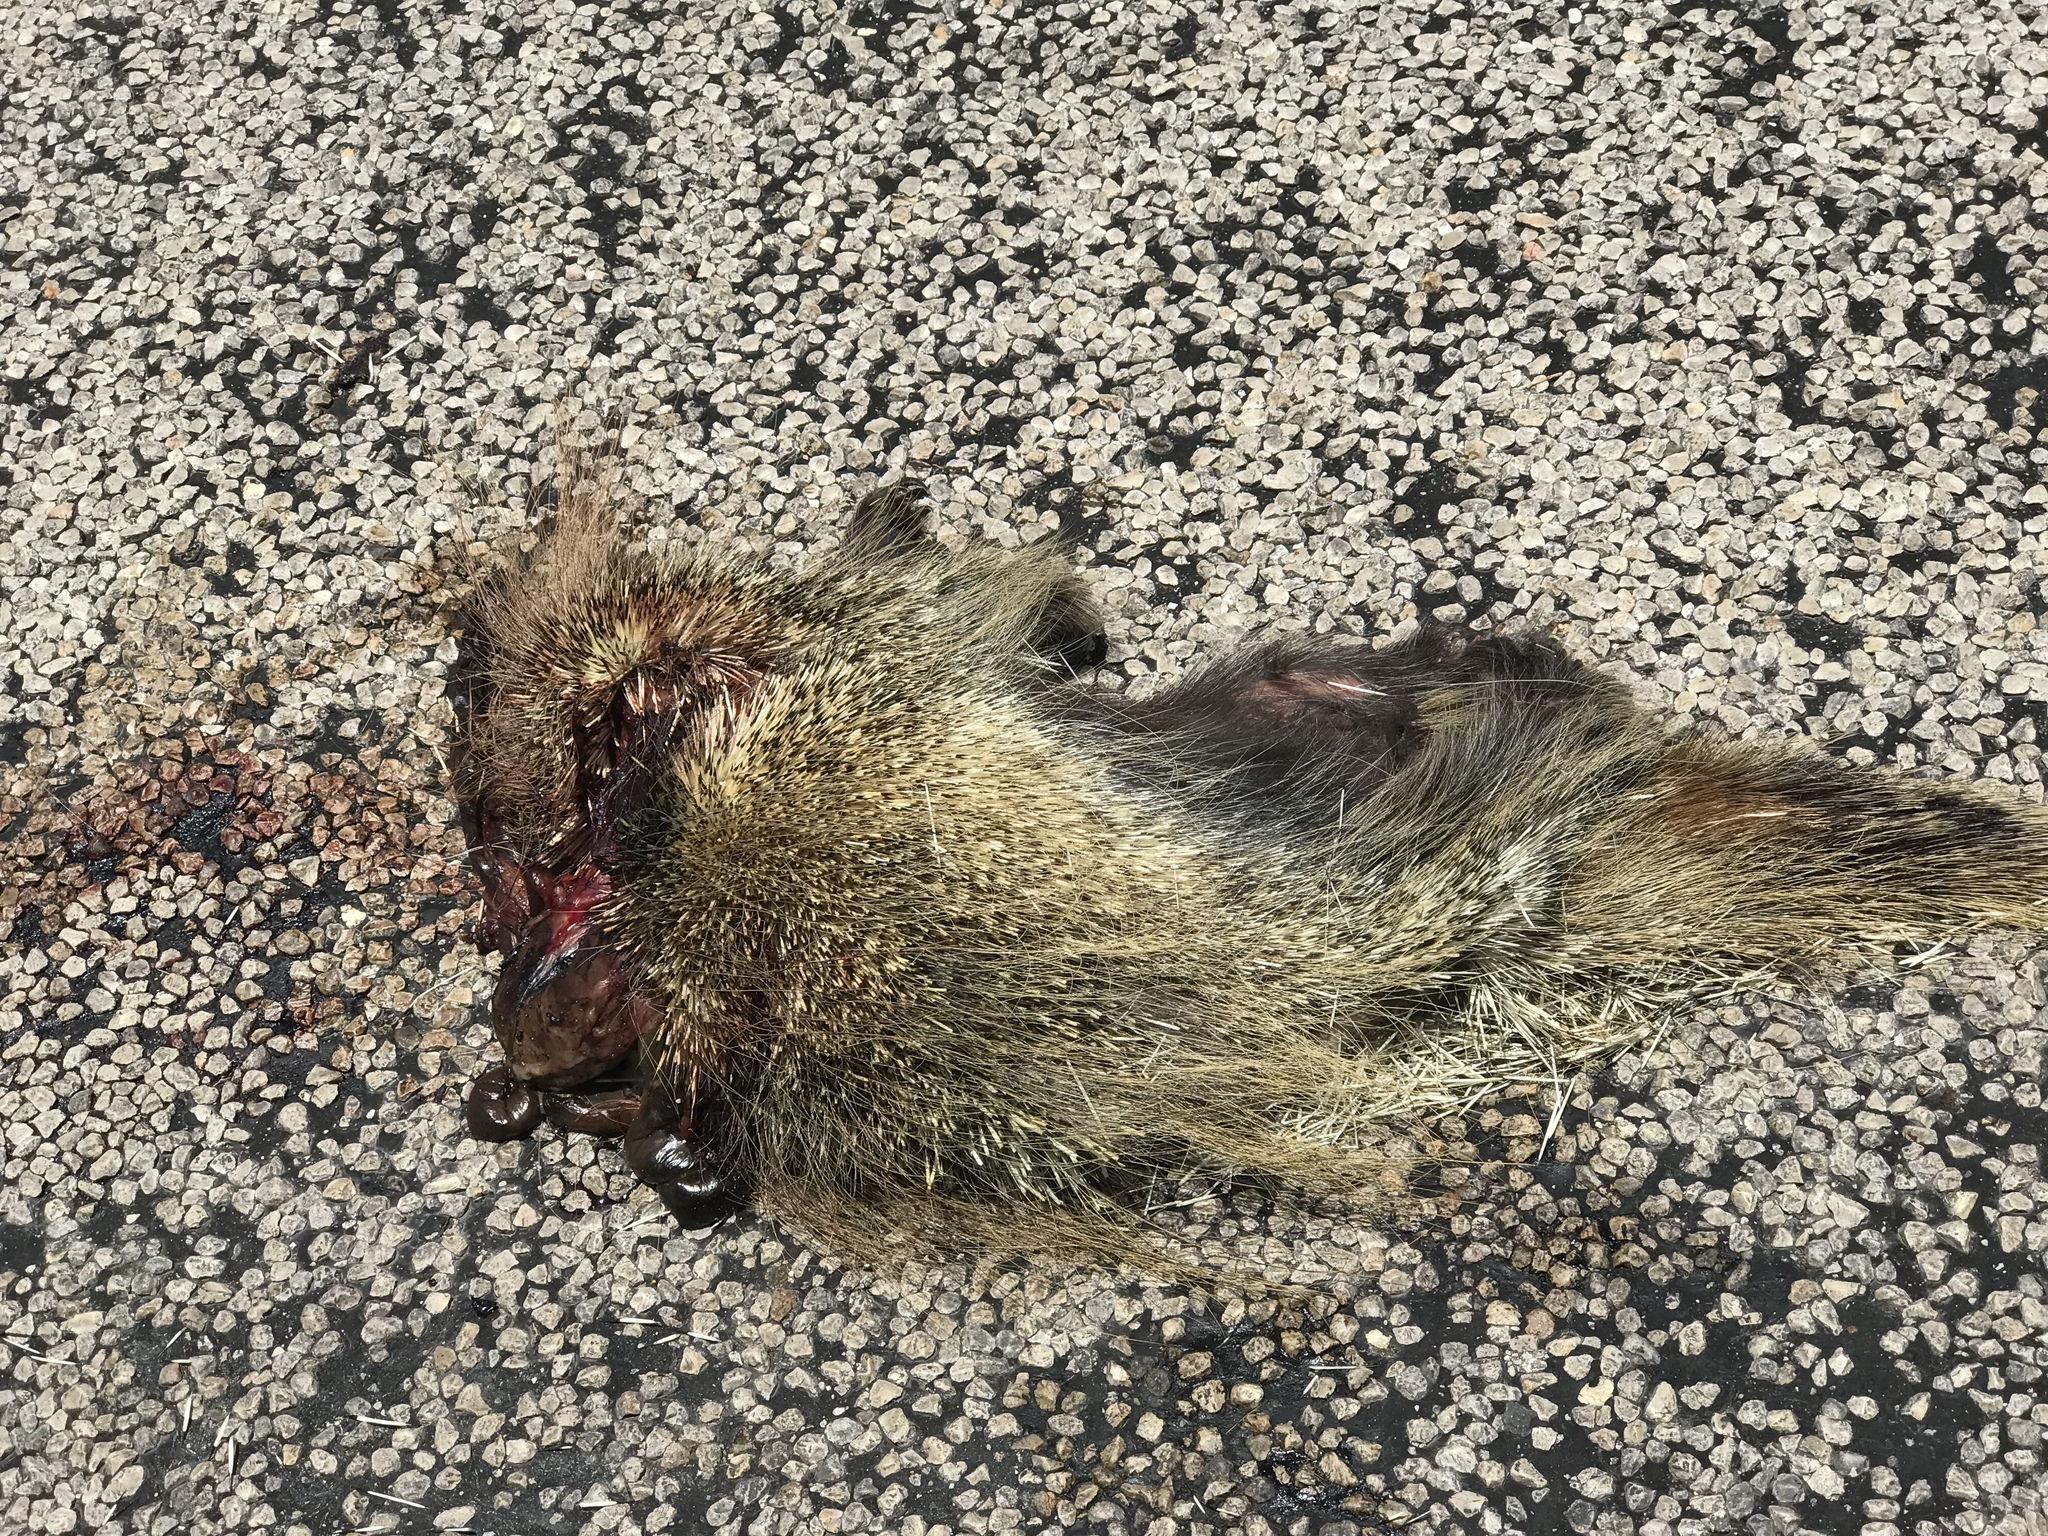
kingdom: Animalia
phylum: Chordata
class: Mammalia
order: Rodentia
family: Erethizontidae
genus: Erethizon
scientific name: Erethizon dorsatus
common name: North american porcupine
